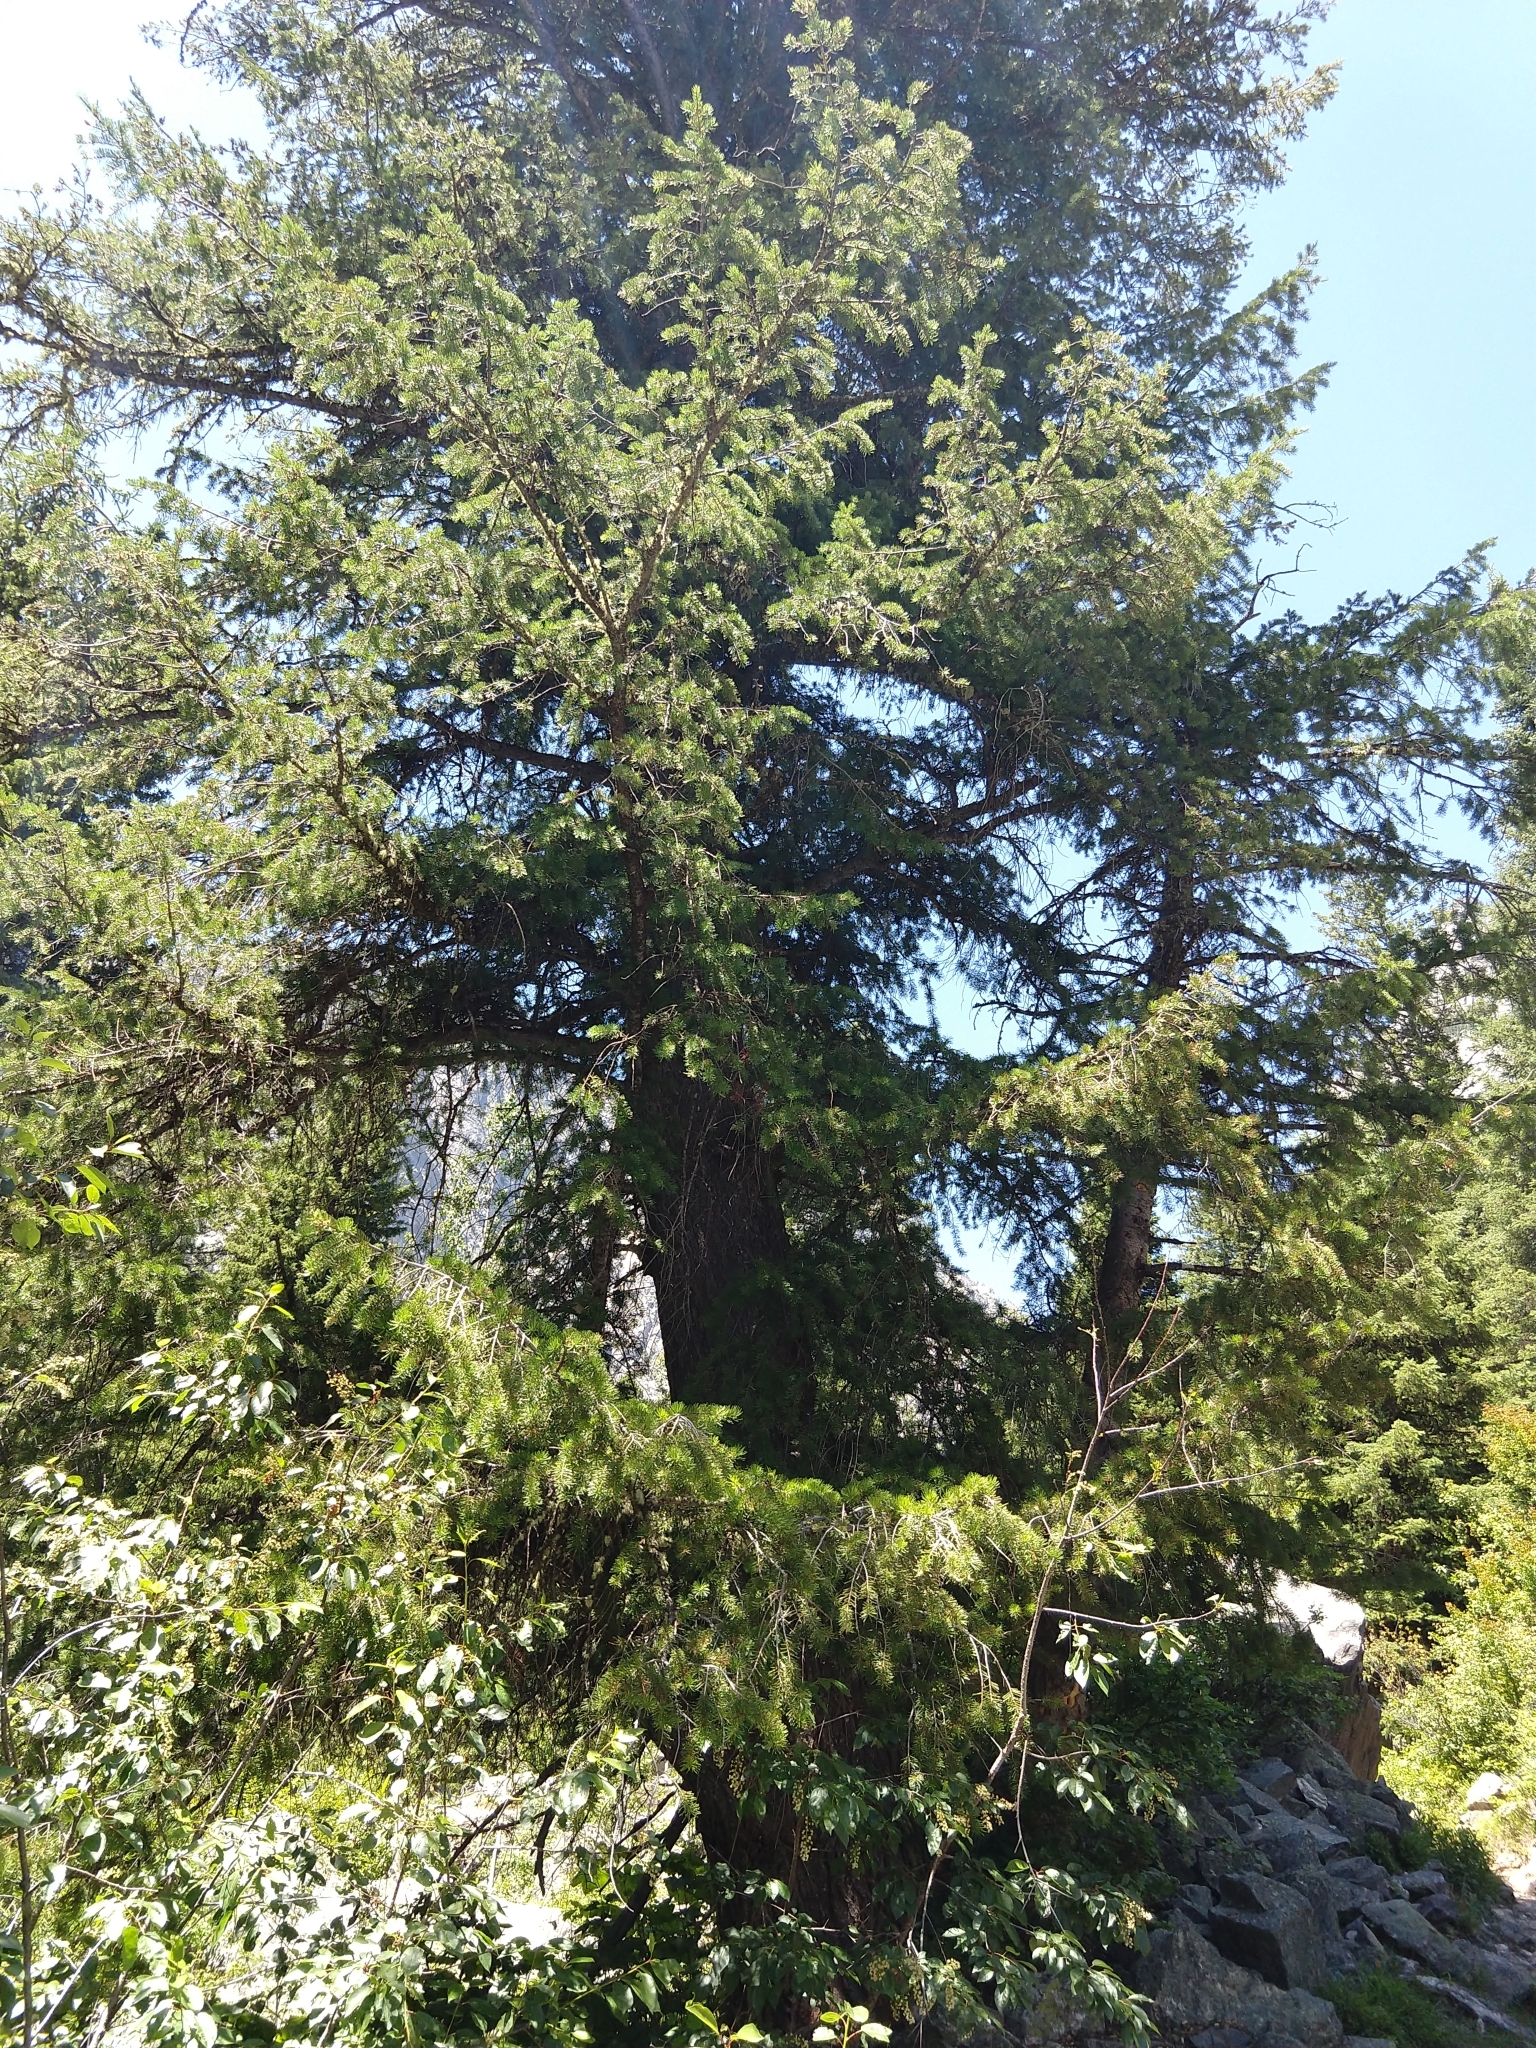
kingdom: Plantae
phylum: Tracheophyta
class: Pinopsida
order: Pinales
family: Pinaceae
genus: Pseudotsuga
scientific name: Pseudotsuga menziesii
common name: Douglas fir
